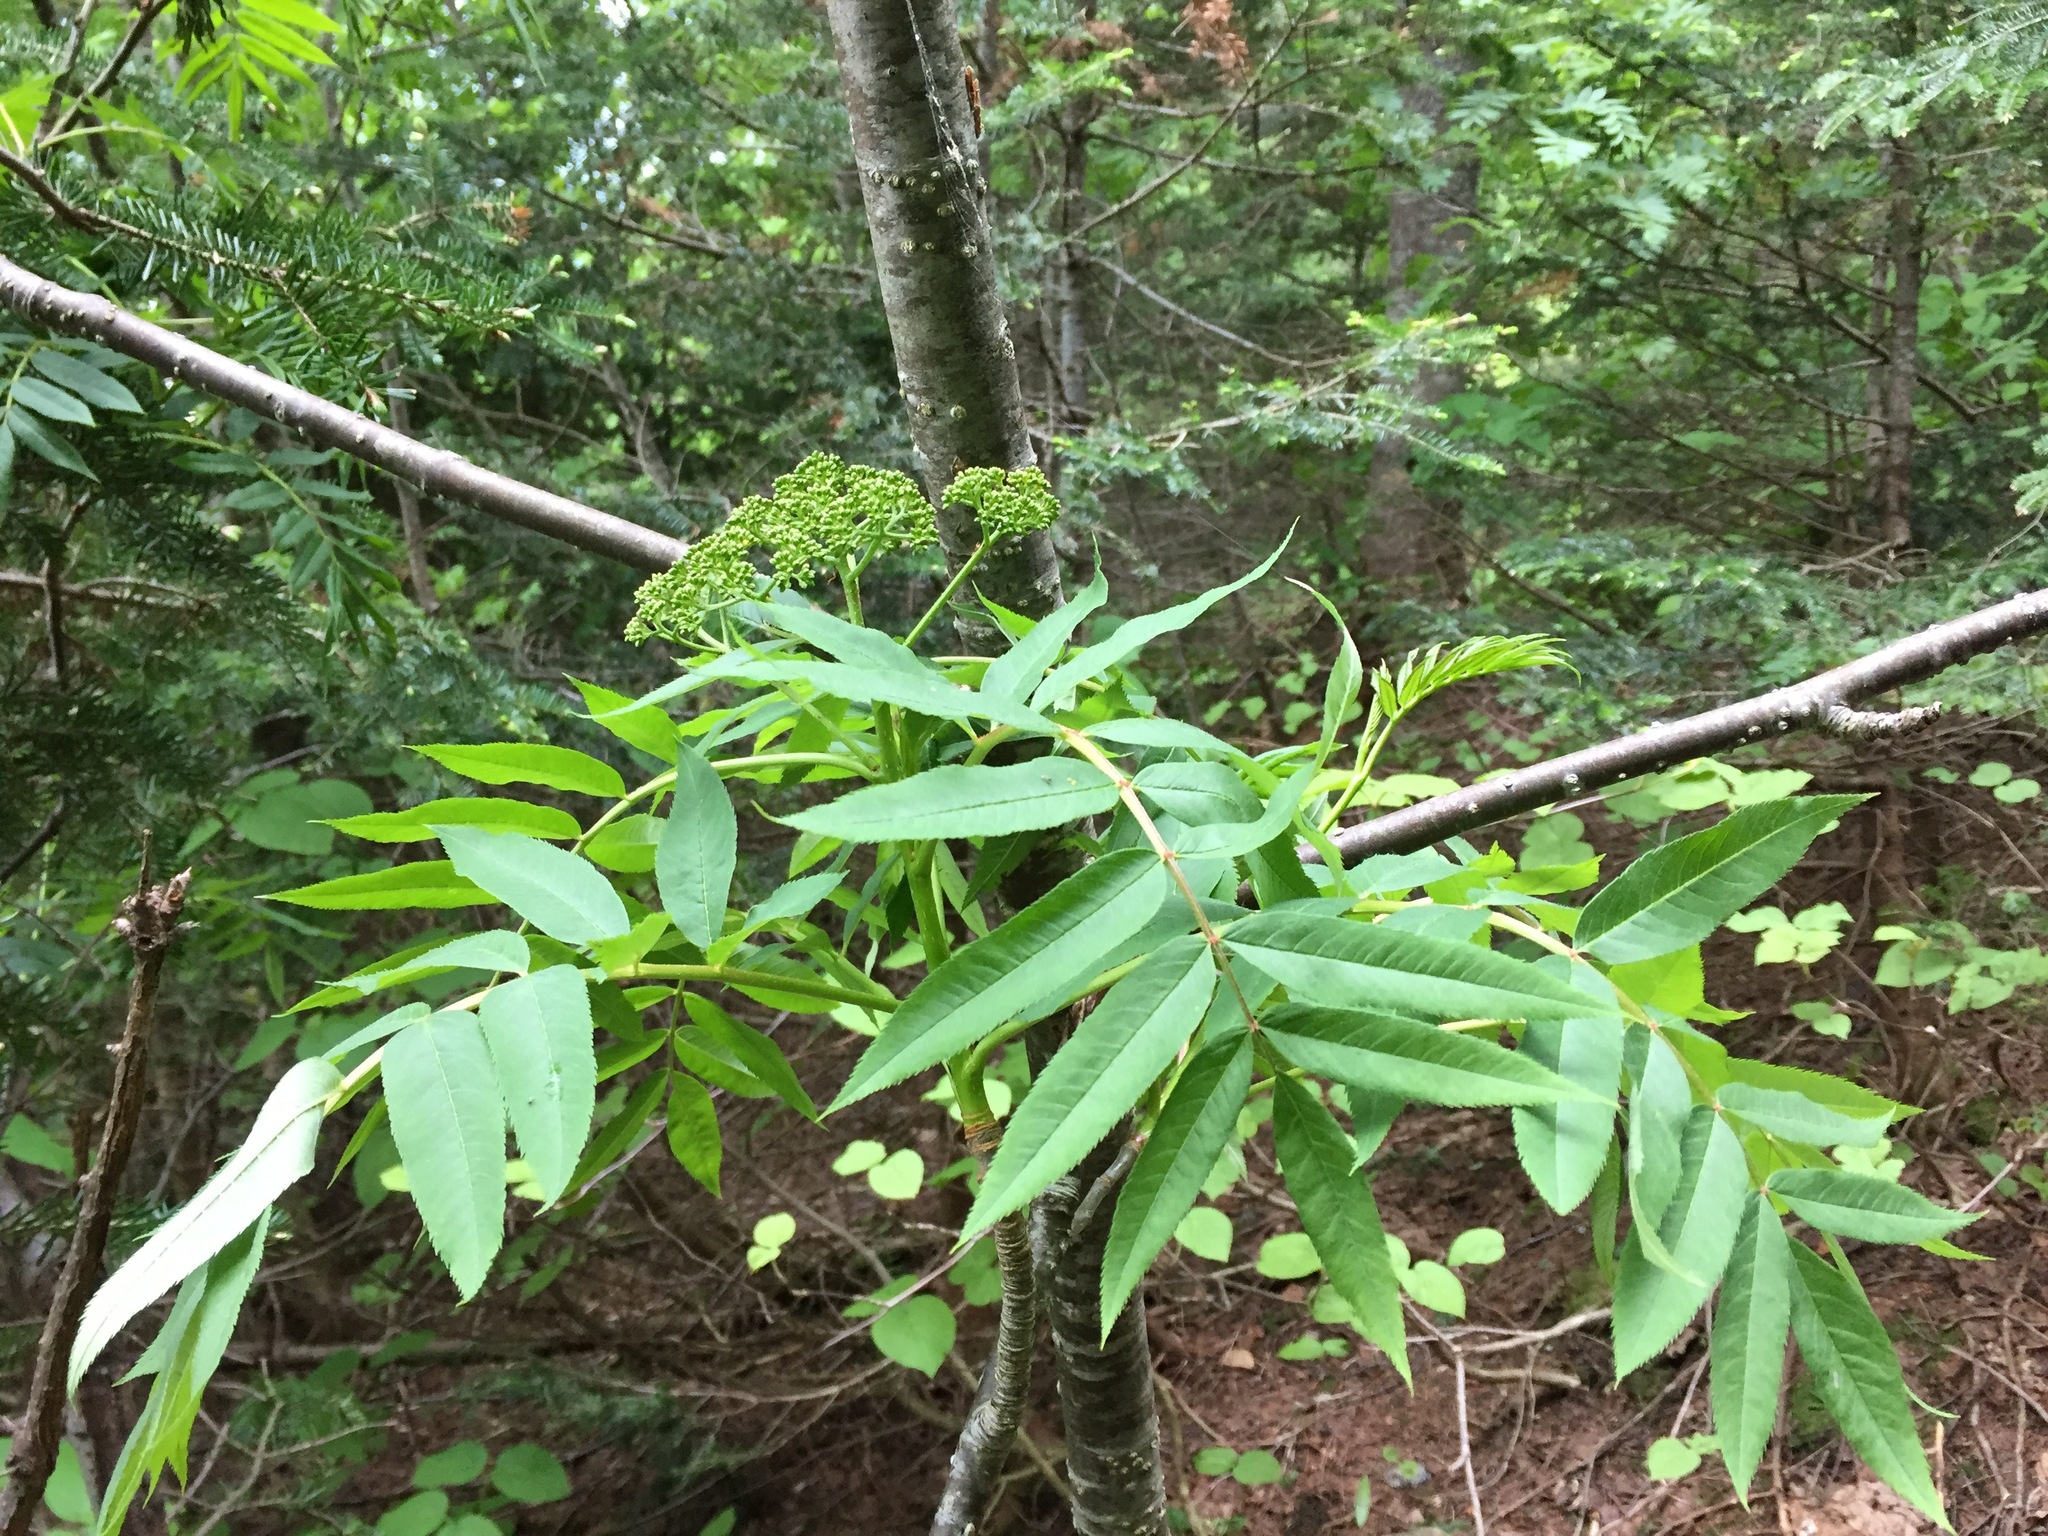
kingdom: Plantae
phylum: Tracheophyta
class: Magnoliopsida
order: Rosales
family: Rosaceae
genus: Sorbus
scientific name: Sorbus americana
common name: American mountain-ash
